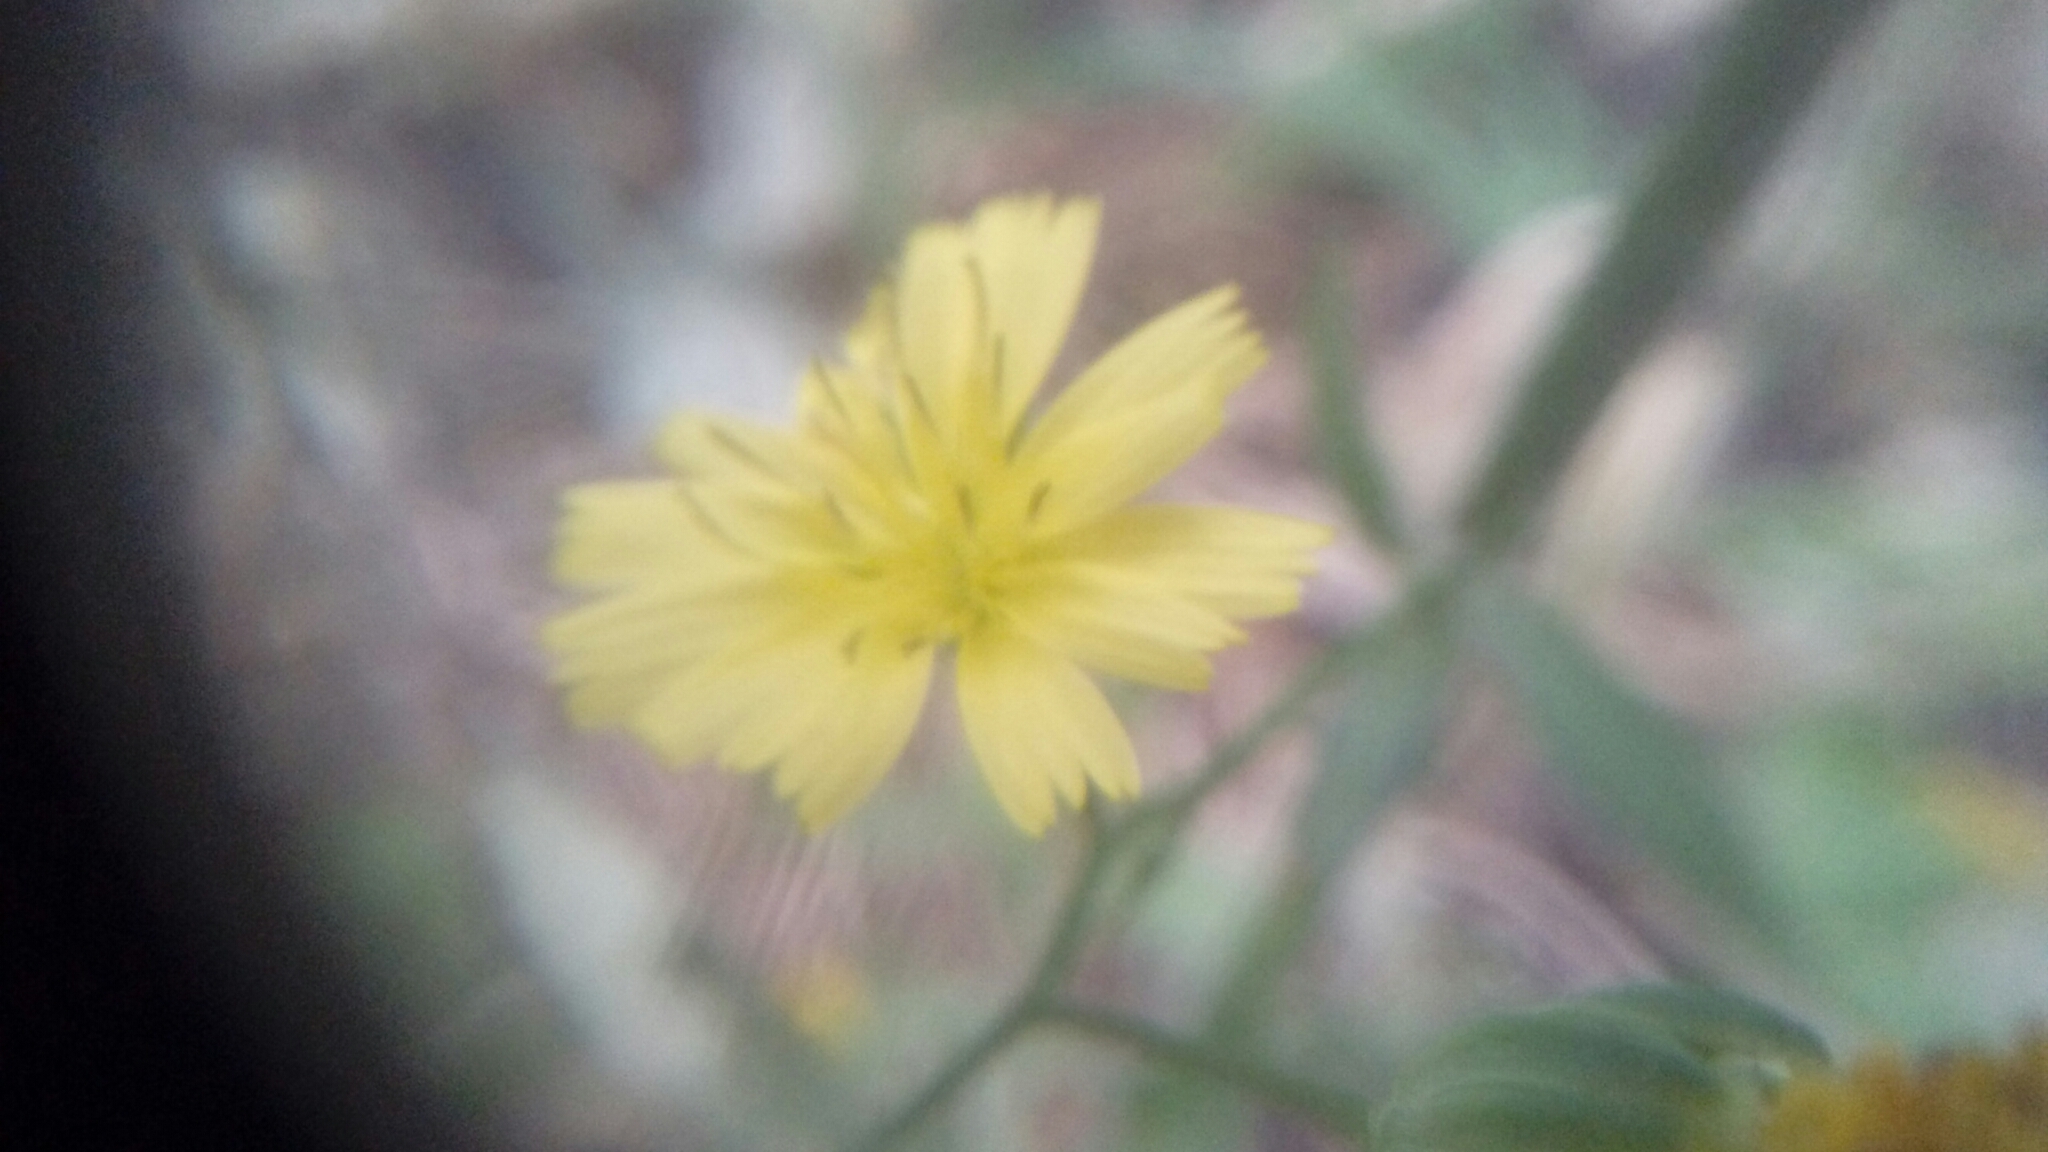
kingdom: Plantae
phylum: Tracheophyta
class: Magnoliopsida
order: Asterales
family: Asteraceae
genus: Lapsana
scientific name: Lapsana communis
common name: Nipplewort
